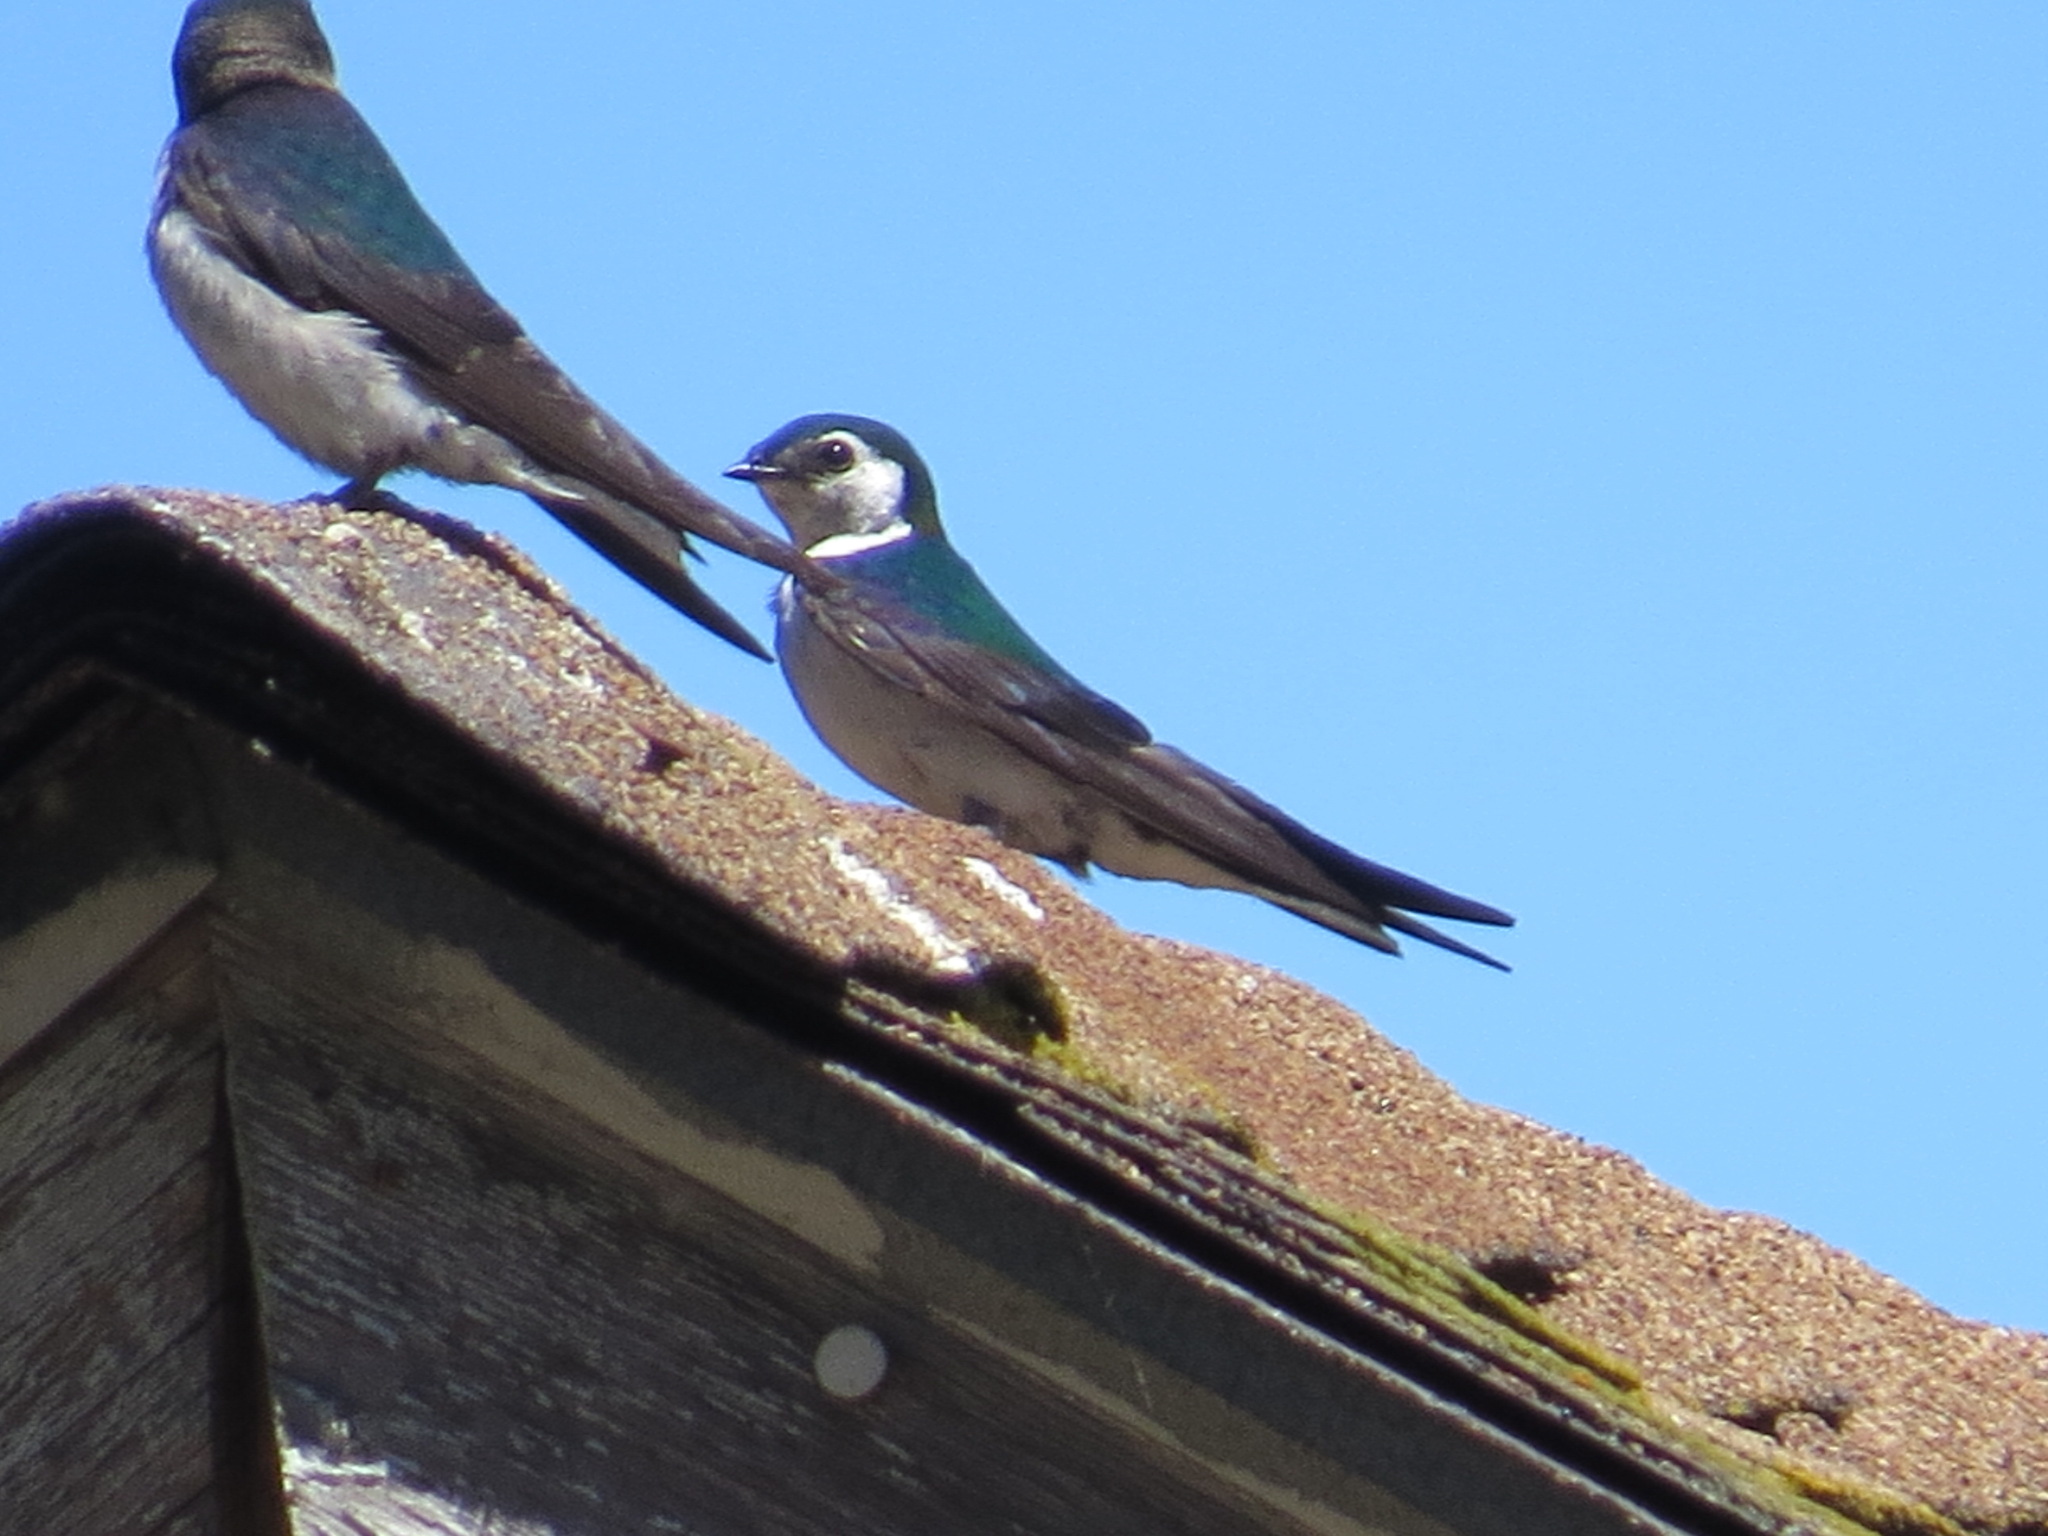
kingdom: Animalia
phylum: Chordata
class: Aves
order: Passeriformes
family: Hirundinidae
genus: Tachycineta
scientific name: Tachycineta thalassina
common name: Violet-green swallow
